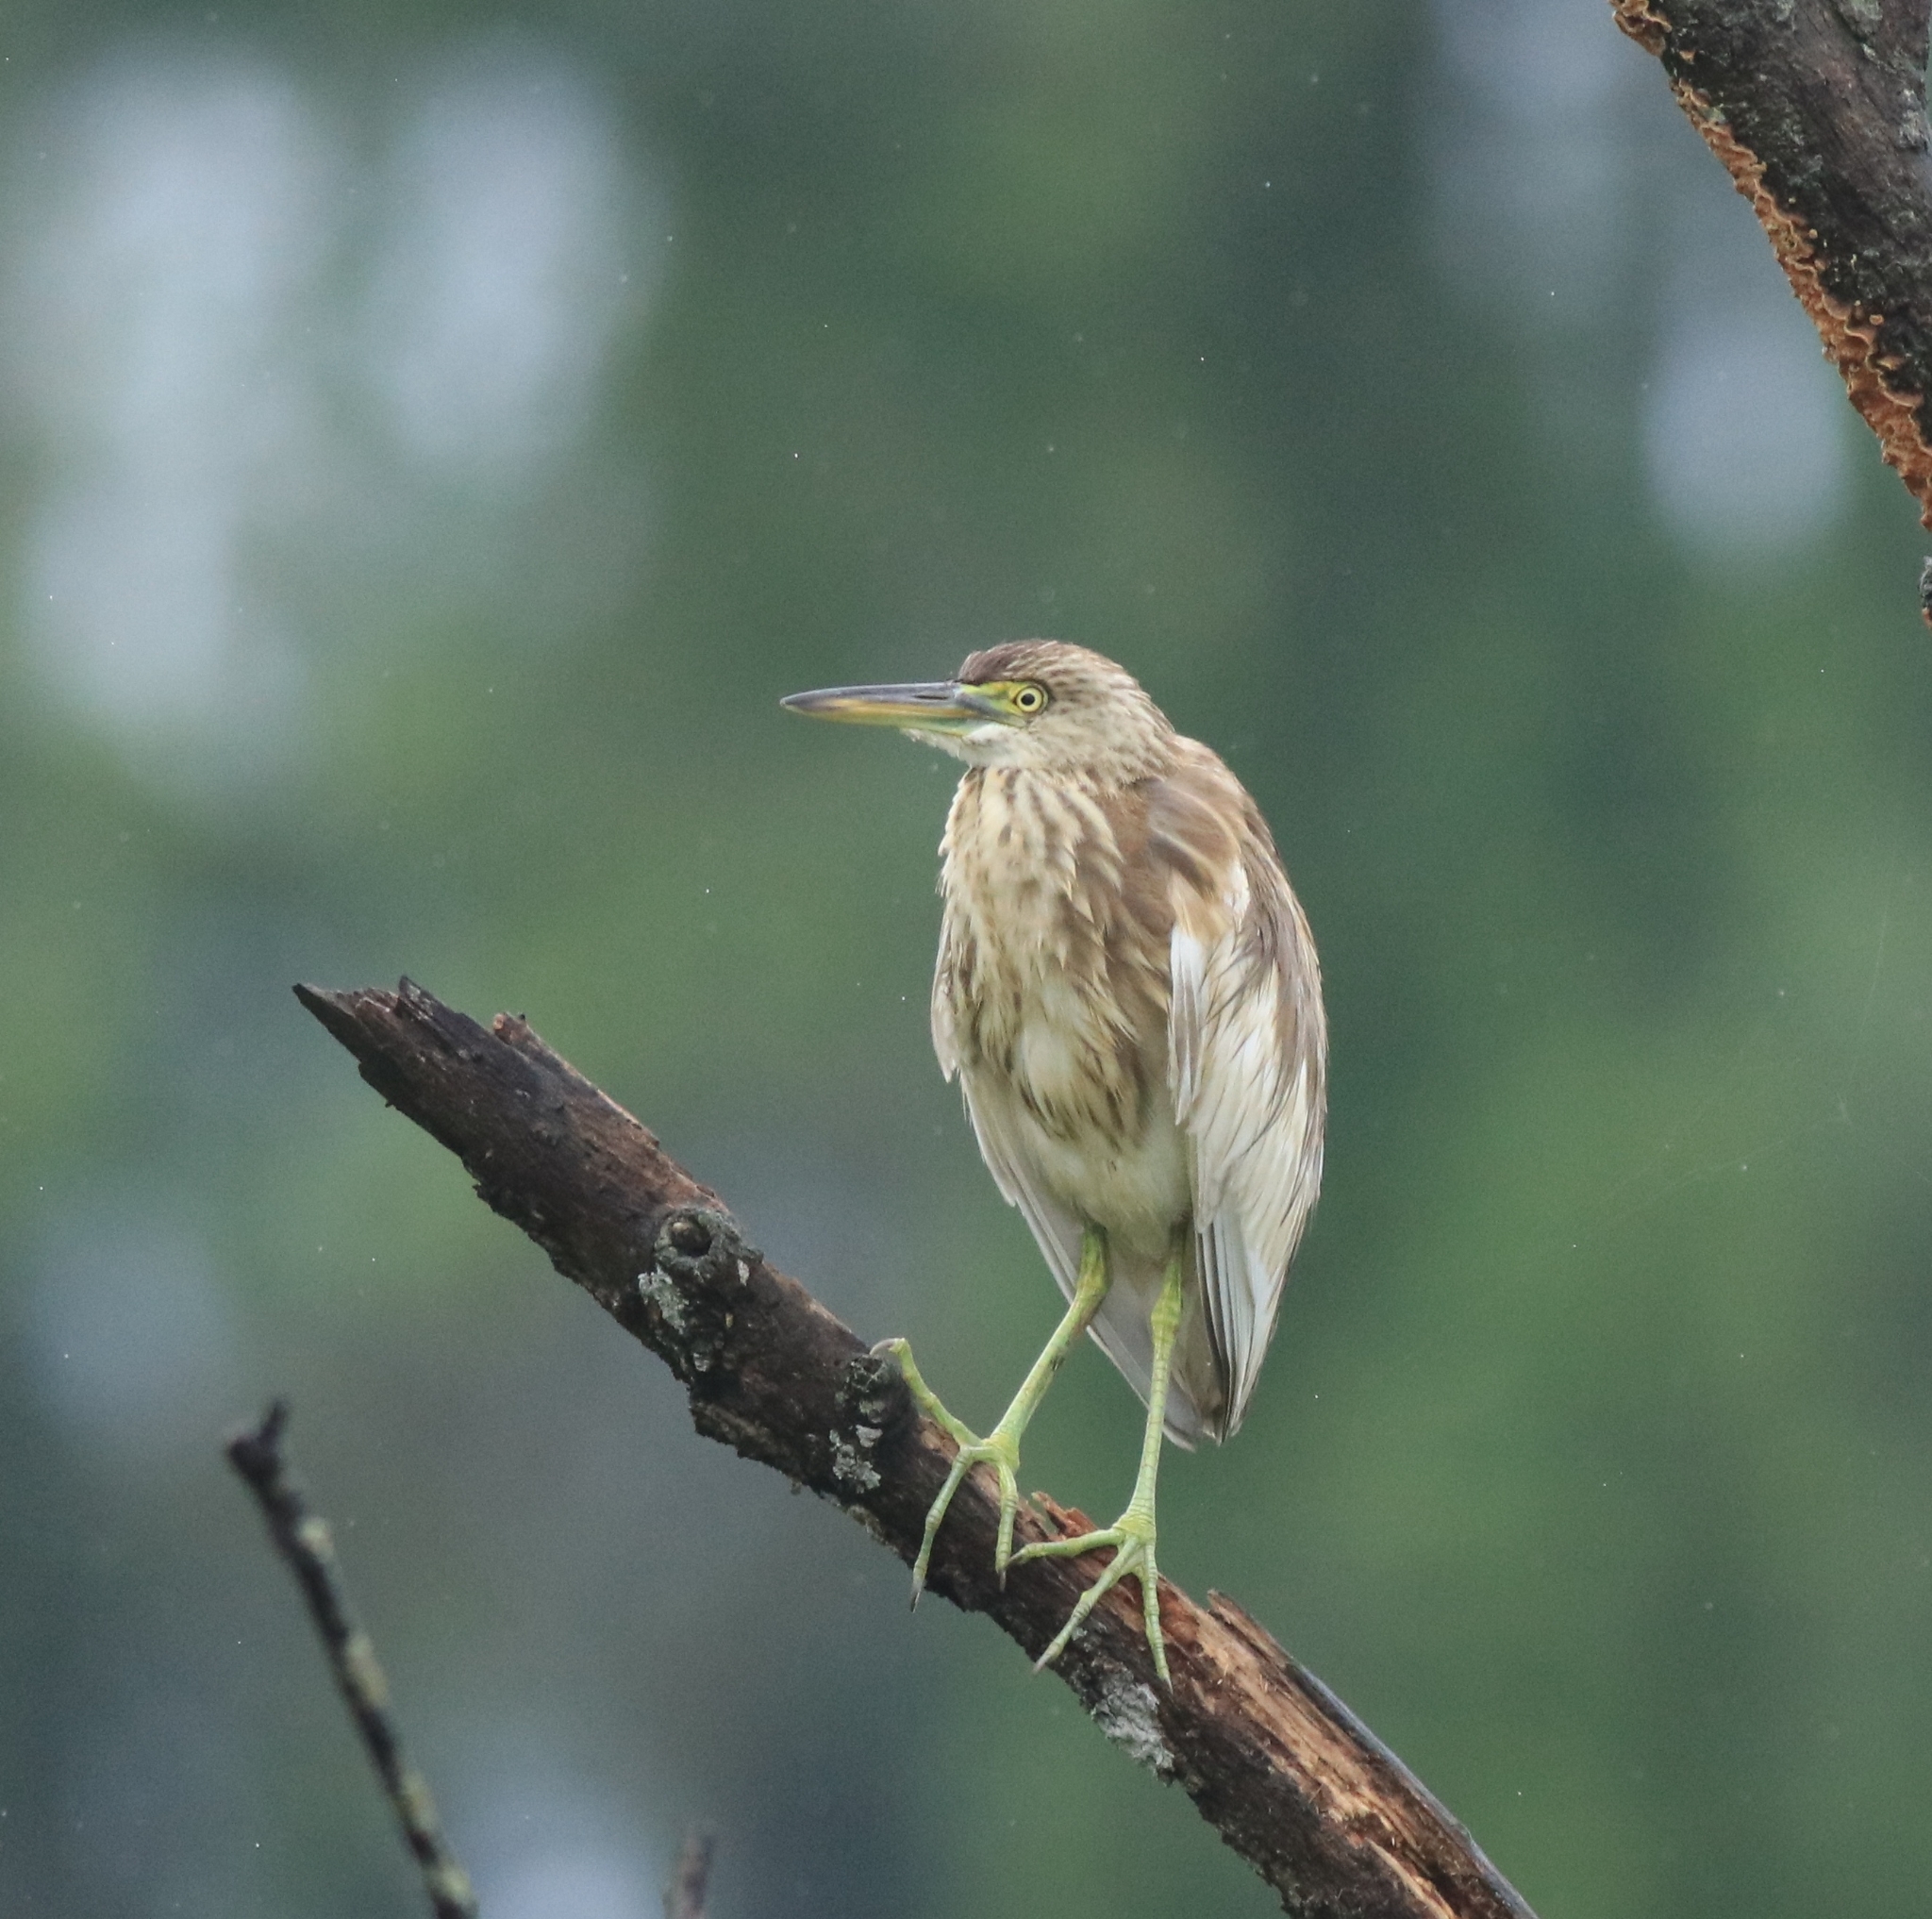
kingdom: Animalia
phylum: Chordata
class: Aves
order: Pelecaniformes
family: Ardeidae
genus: Ardeola
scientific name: Ardeola grayii
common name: Indian pond heron
